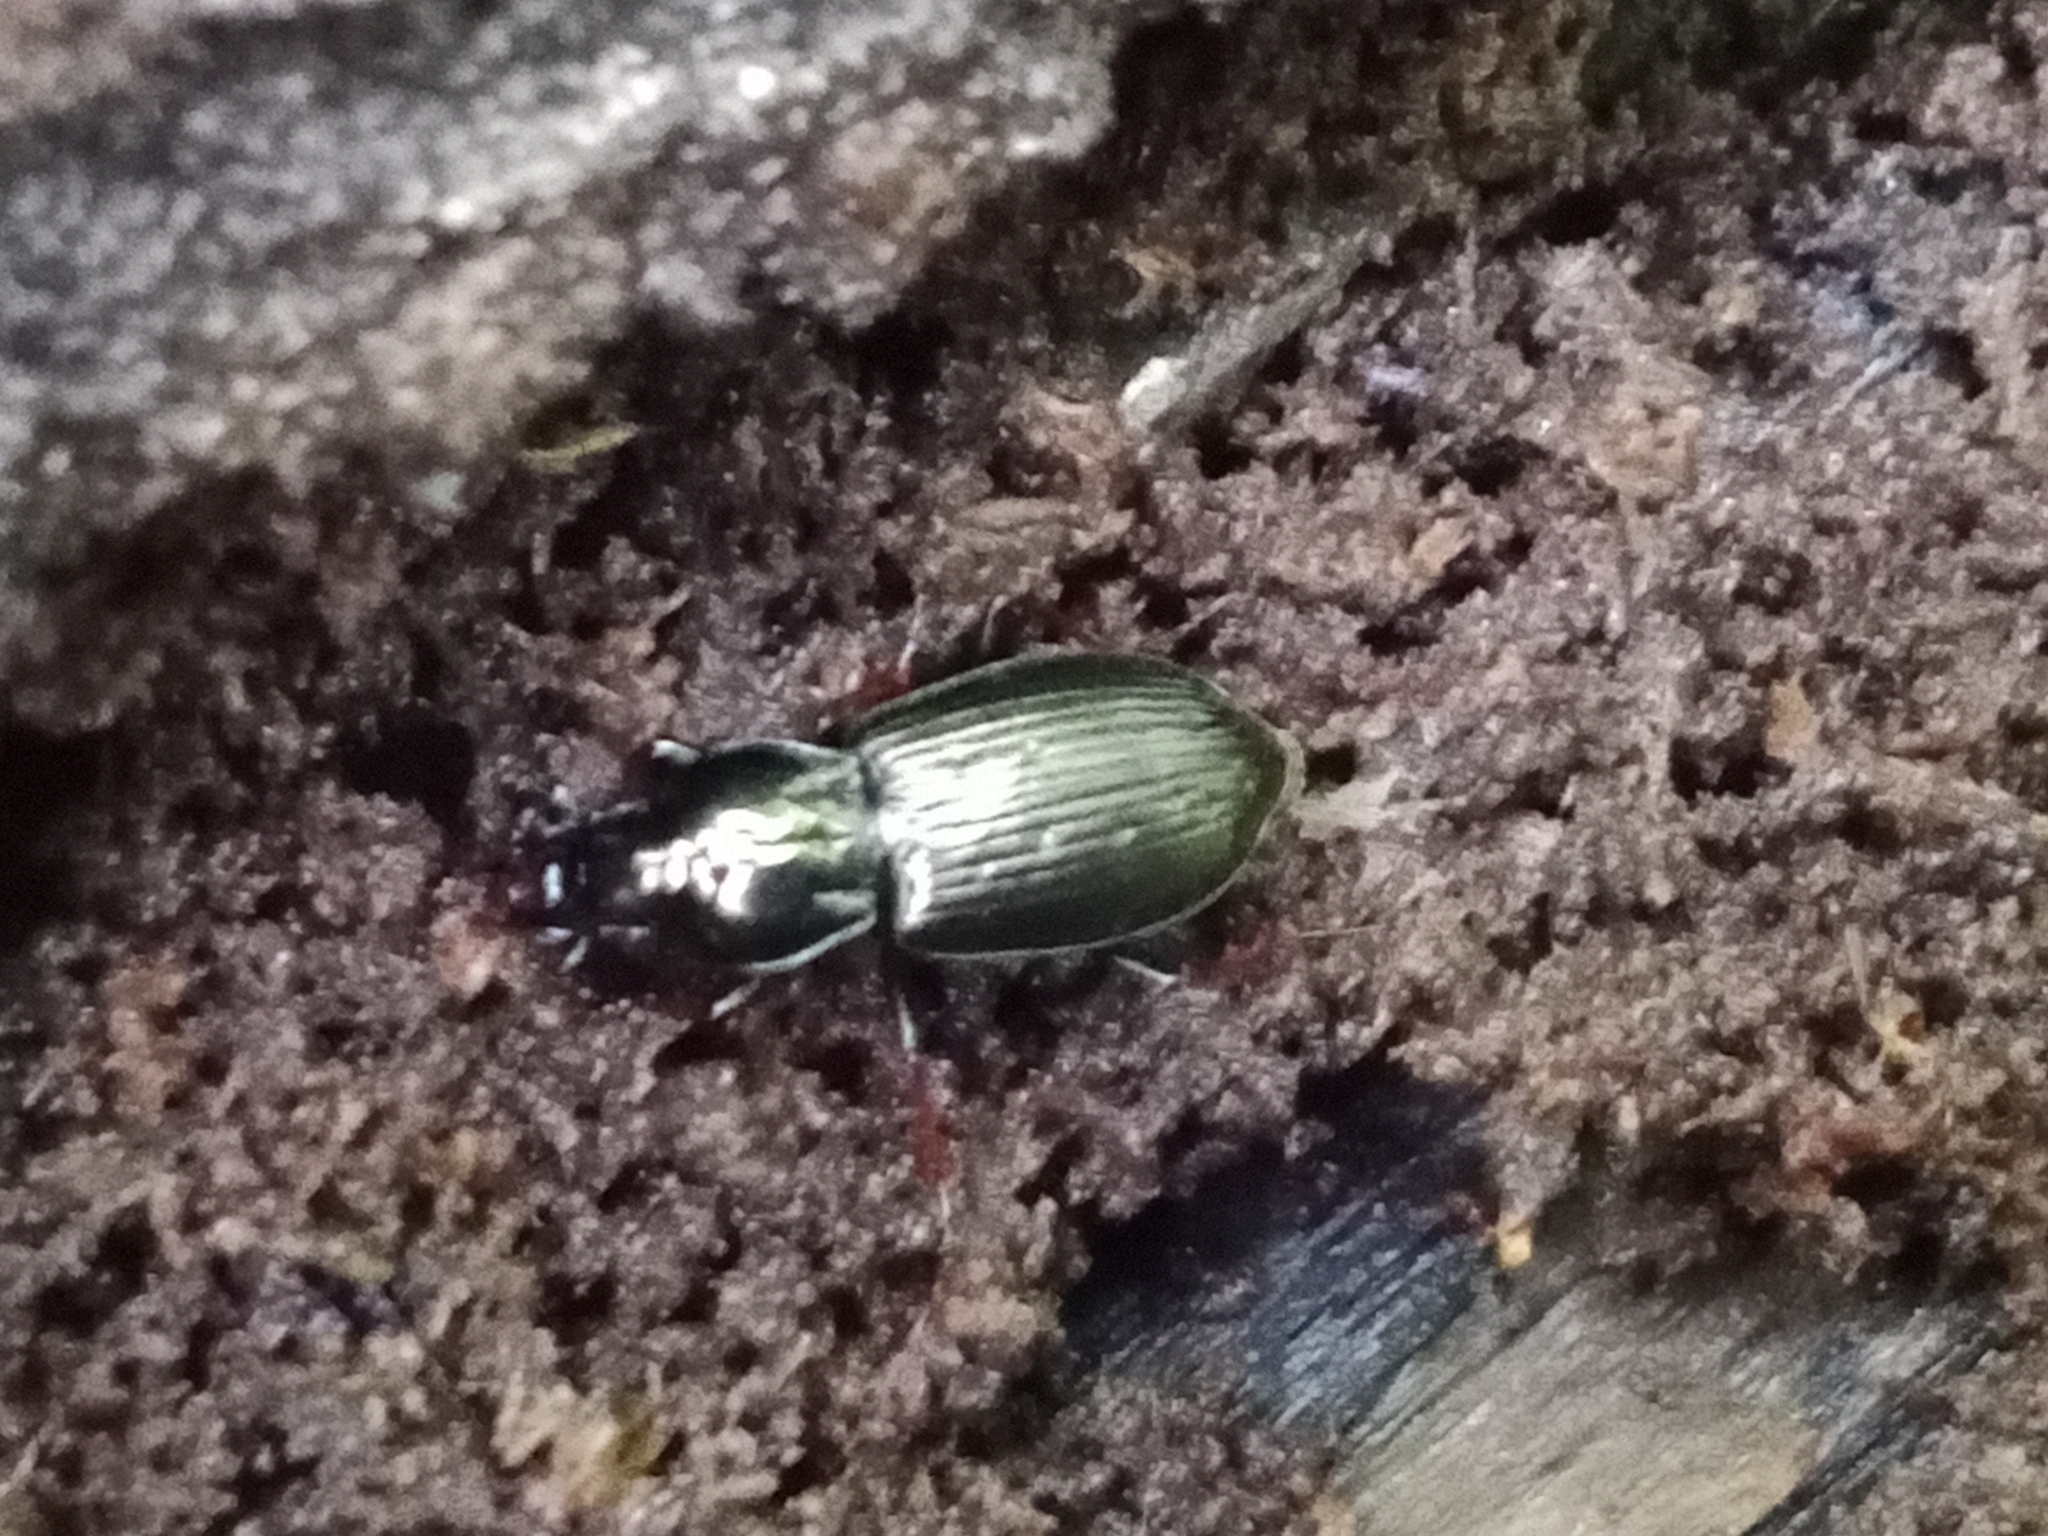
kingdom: Animalia
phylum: Arthropoda
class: Insecta
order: Coleoptera
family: Carabidae
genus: Pterostichus
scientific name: Pterostichus oblongopunctatus
